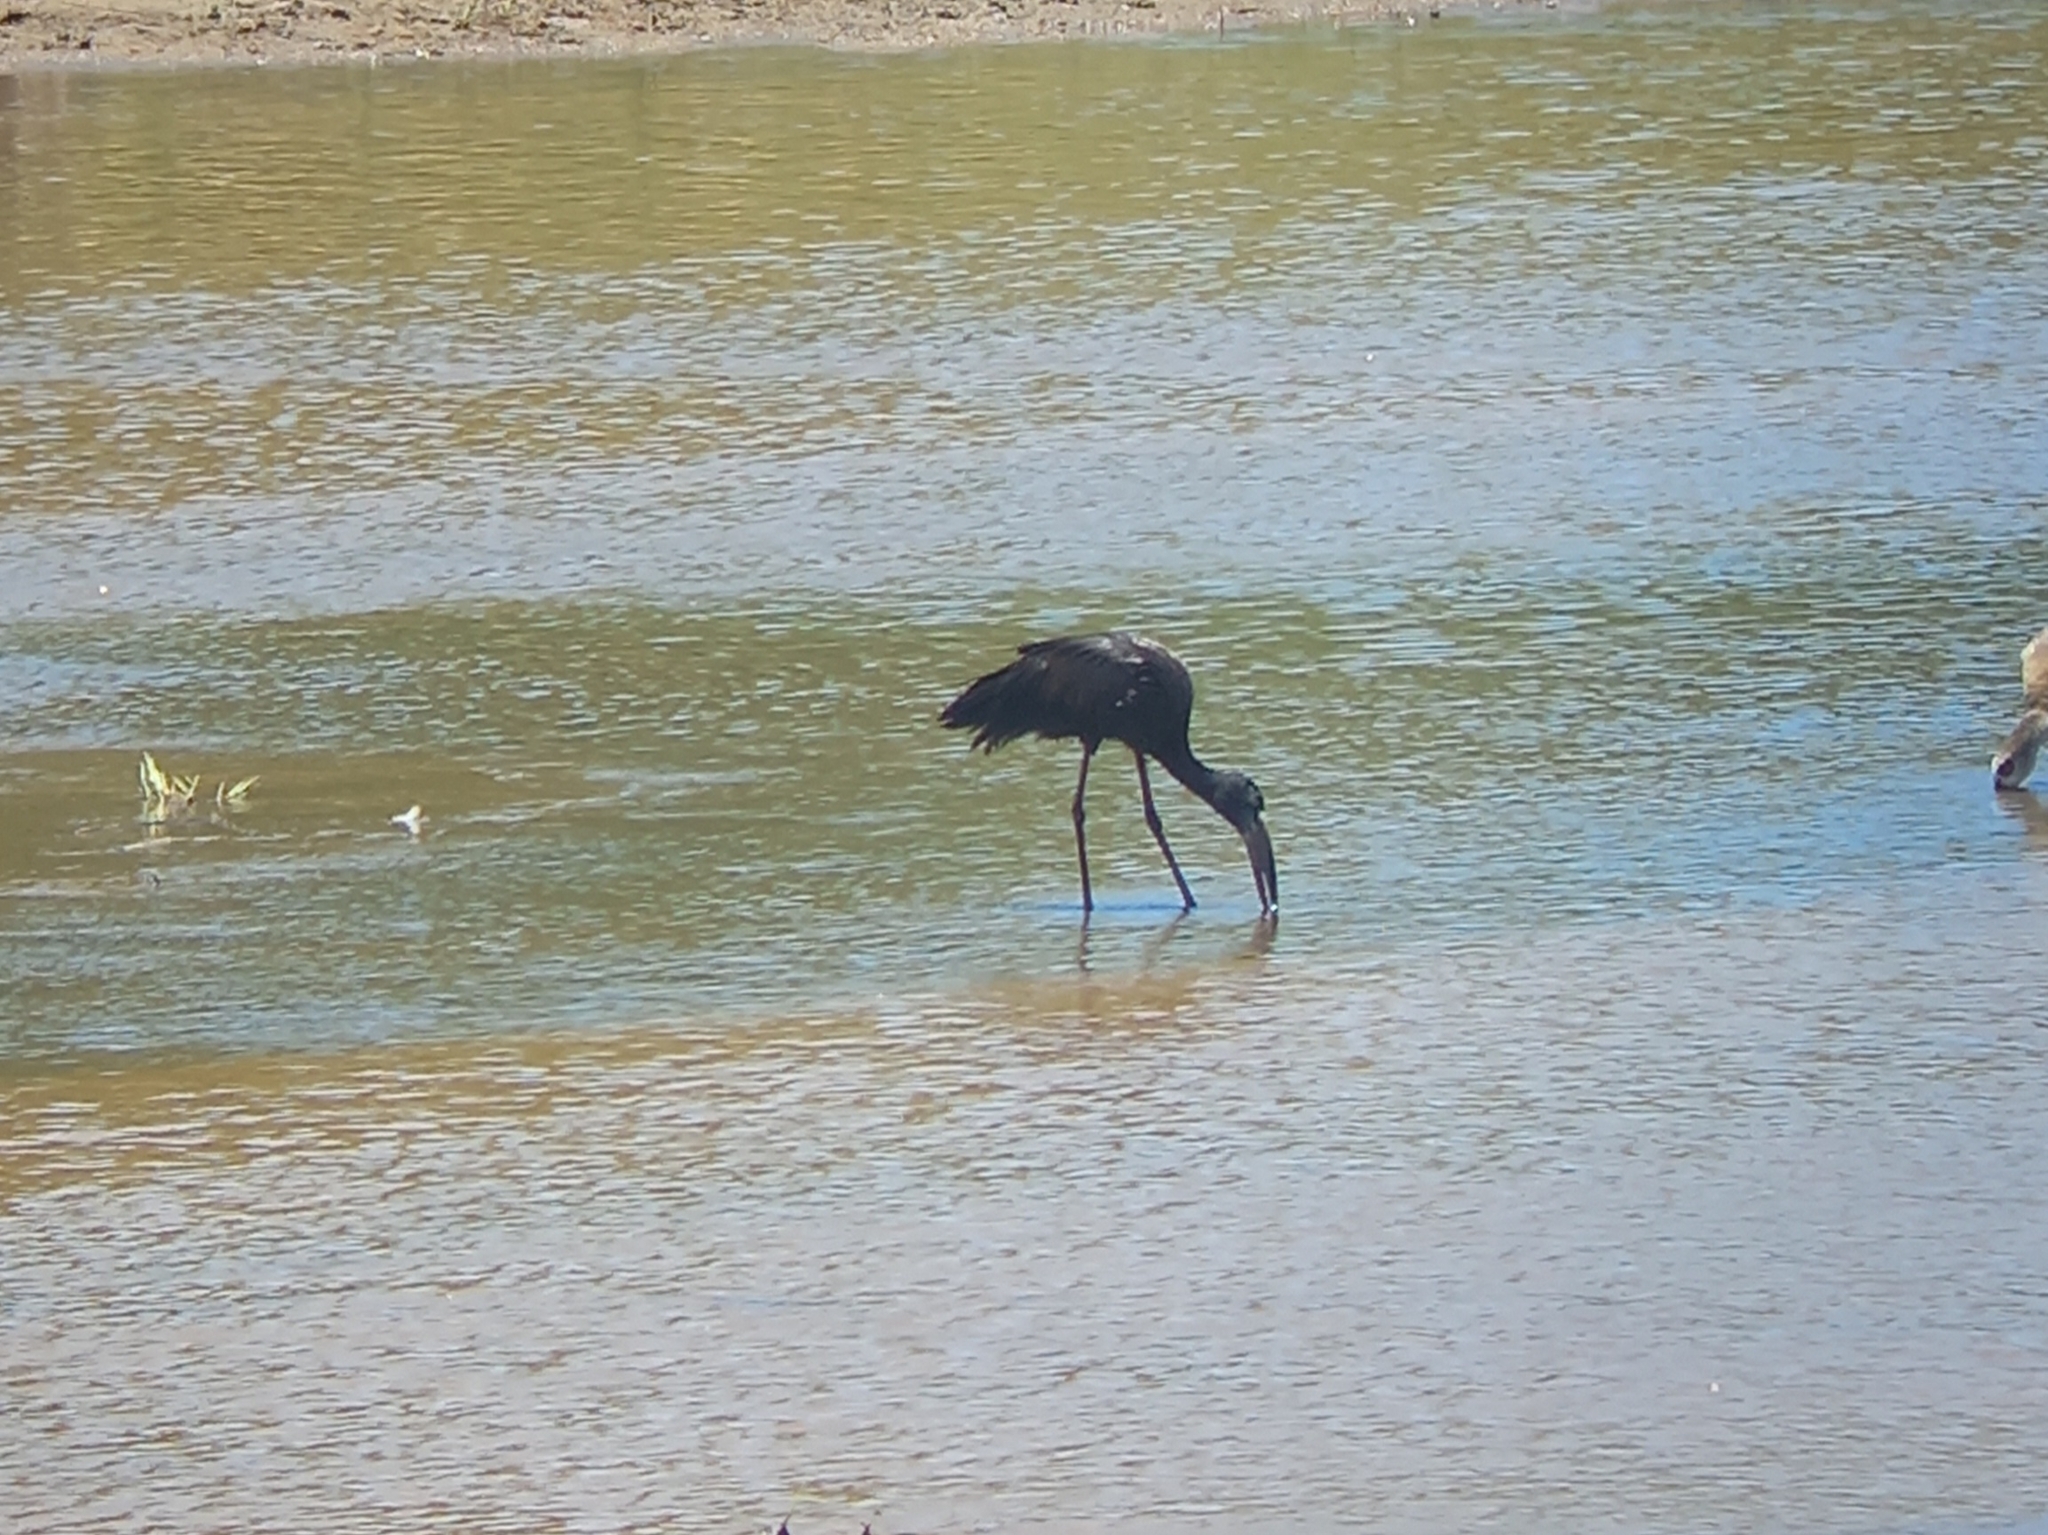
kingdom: Animalia
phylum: Chordata
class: Aves
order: Ciconiiformes
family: Ciconiidae
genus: Anastomus
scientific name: Anastomus lamelligerus
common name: African openbill
